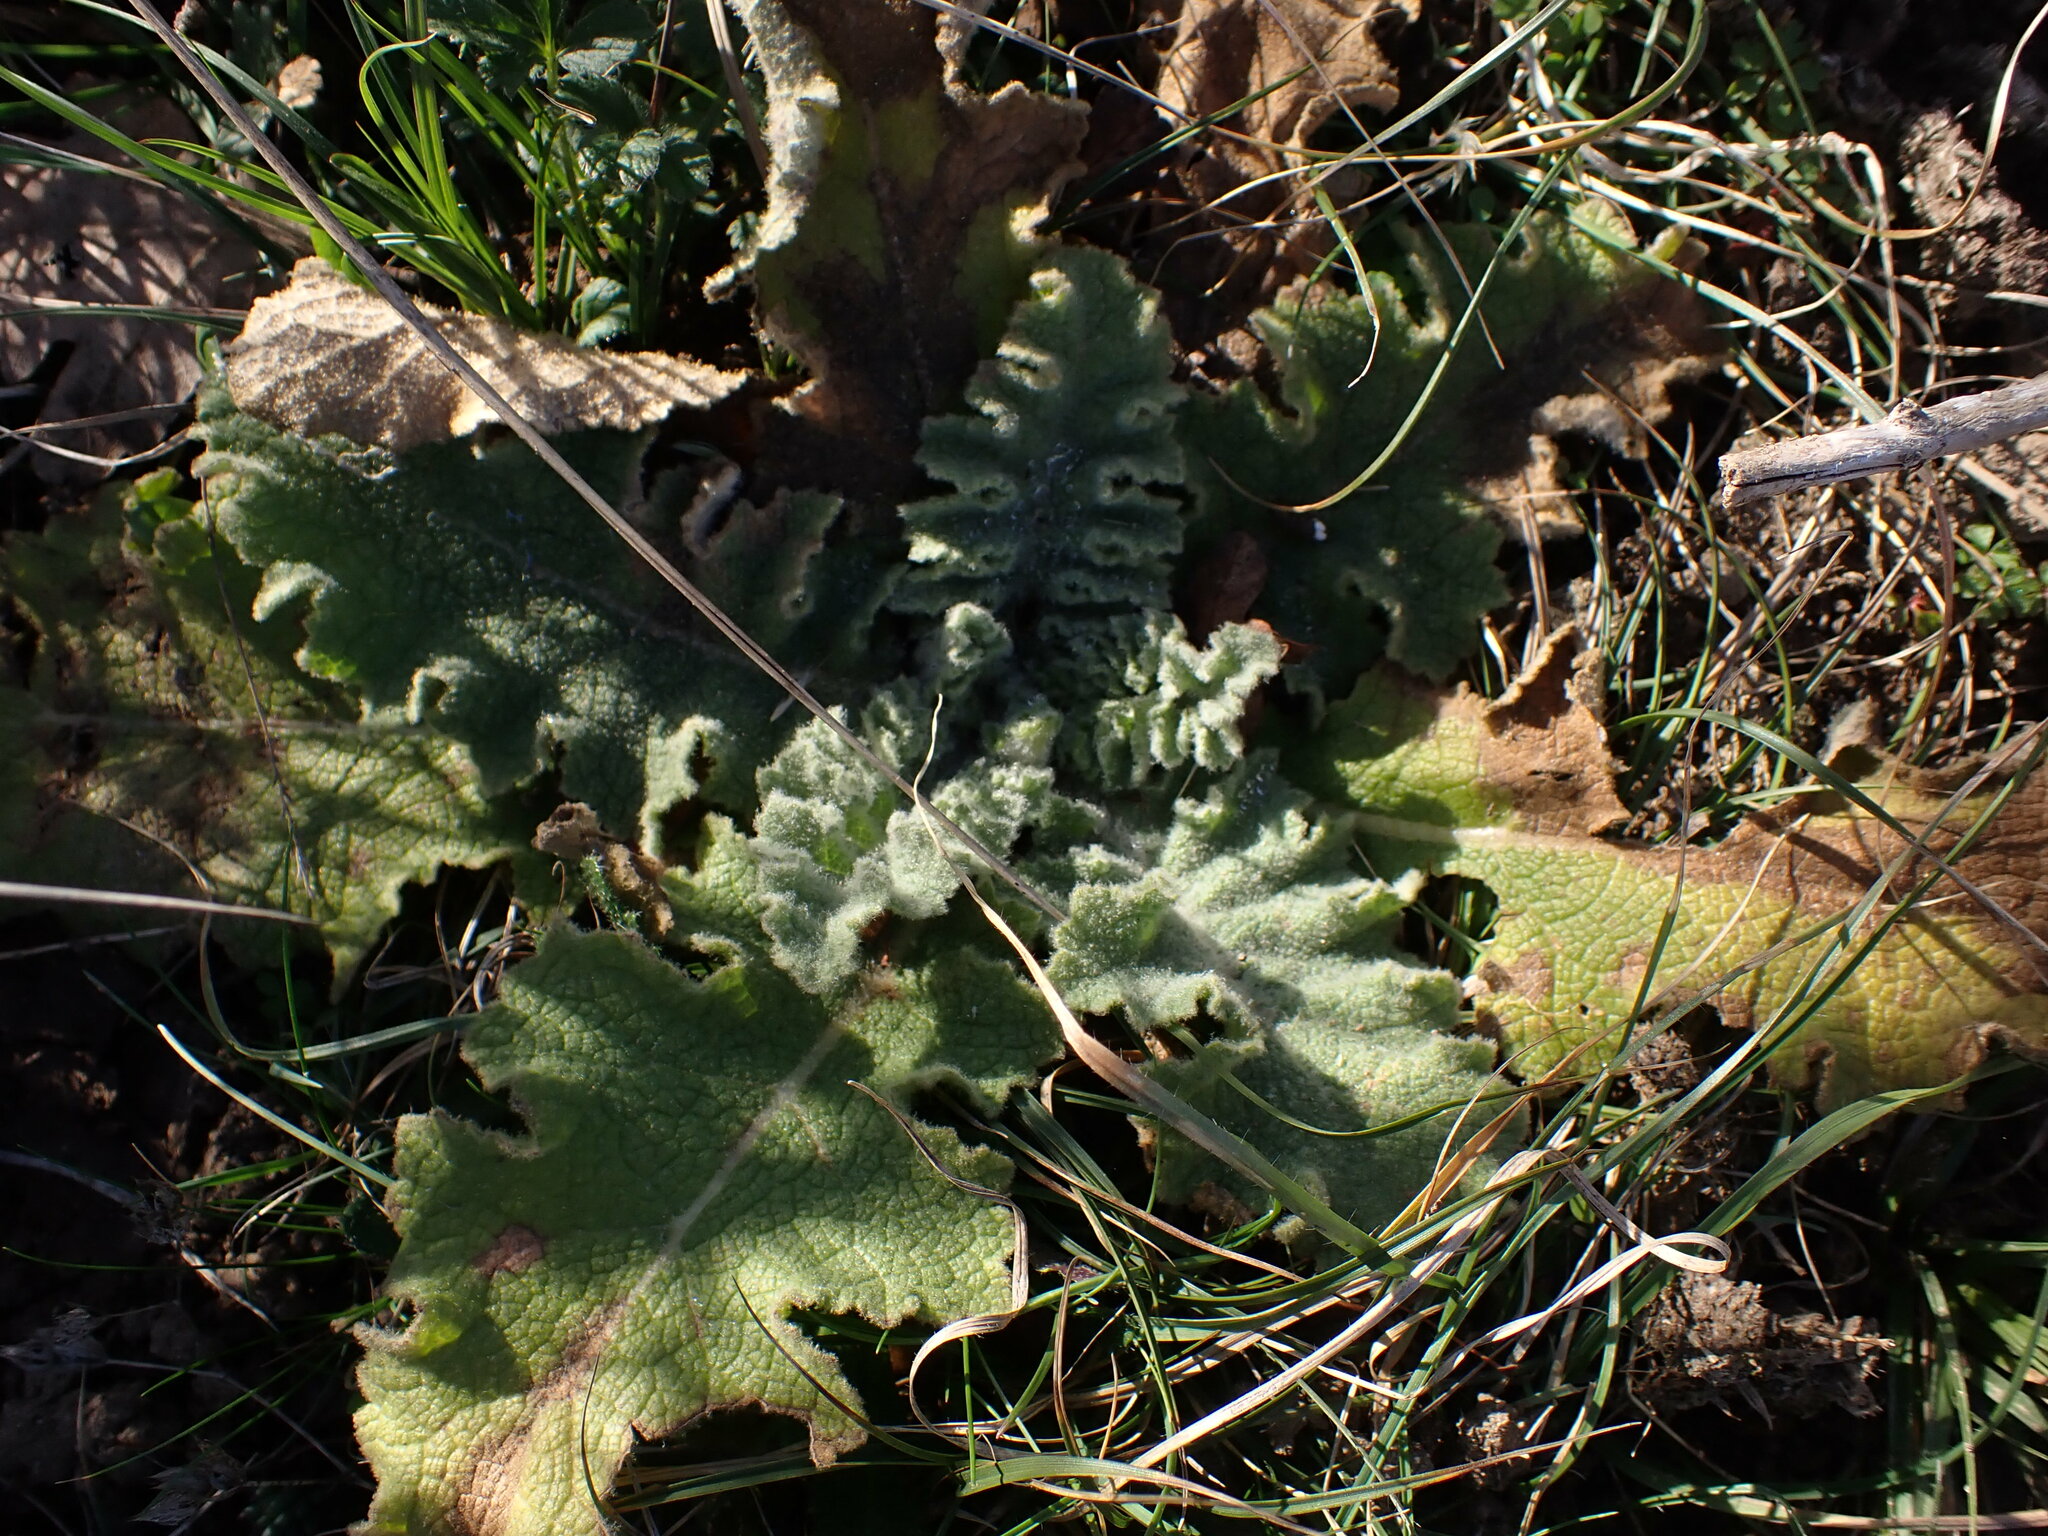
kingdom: Plantae
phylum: Tracheophyta
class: Magnoliopsida
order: Lamiales
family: Scrophulariaceae
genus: Verbascum
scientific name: Verbascum sinuatum
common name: Wavyleaf mullein
